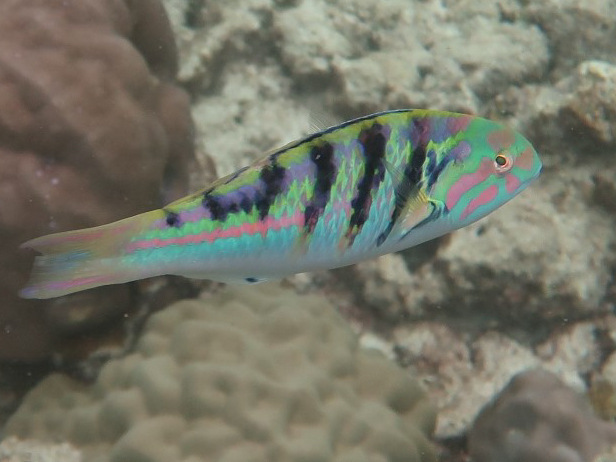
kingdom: Animalia
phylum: Chordata
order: Perciformes
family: Labridae
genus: Thalassoma
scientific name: Thalassoma hardwicke
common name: Sixbar wrasse
